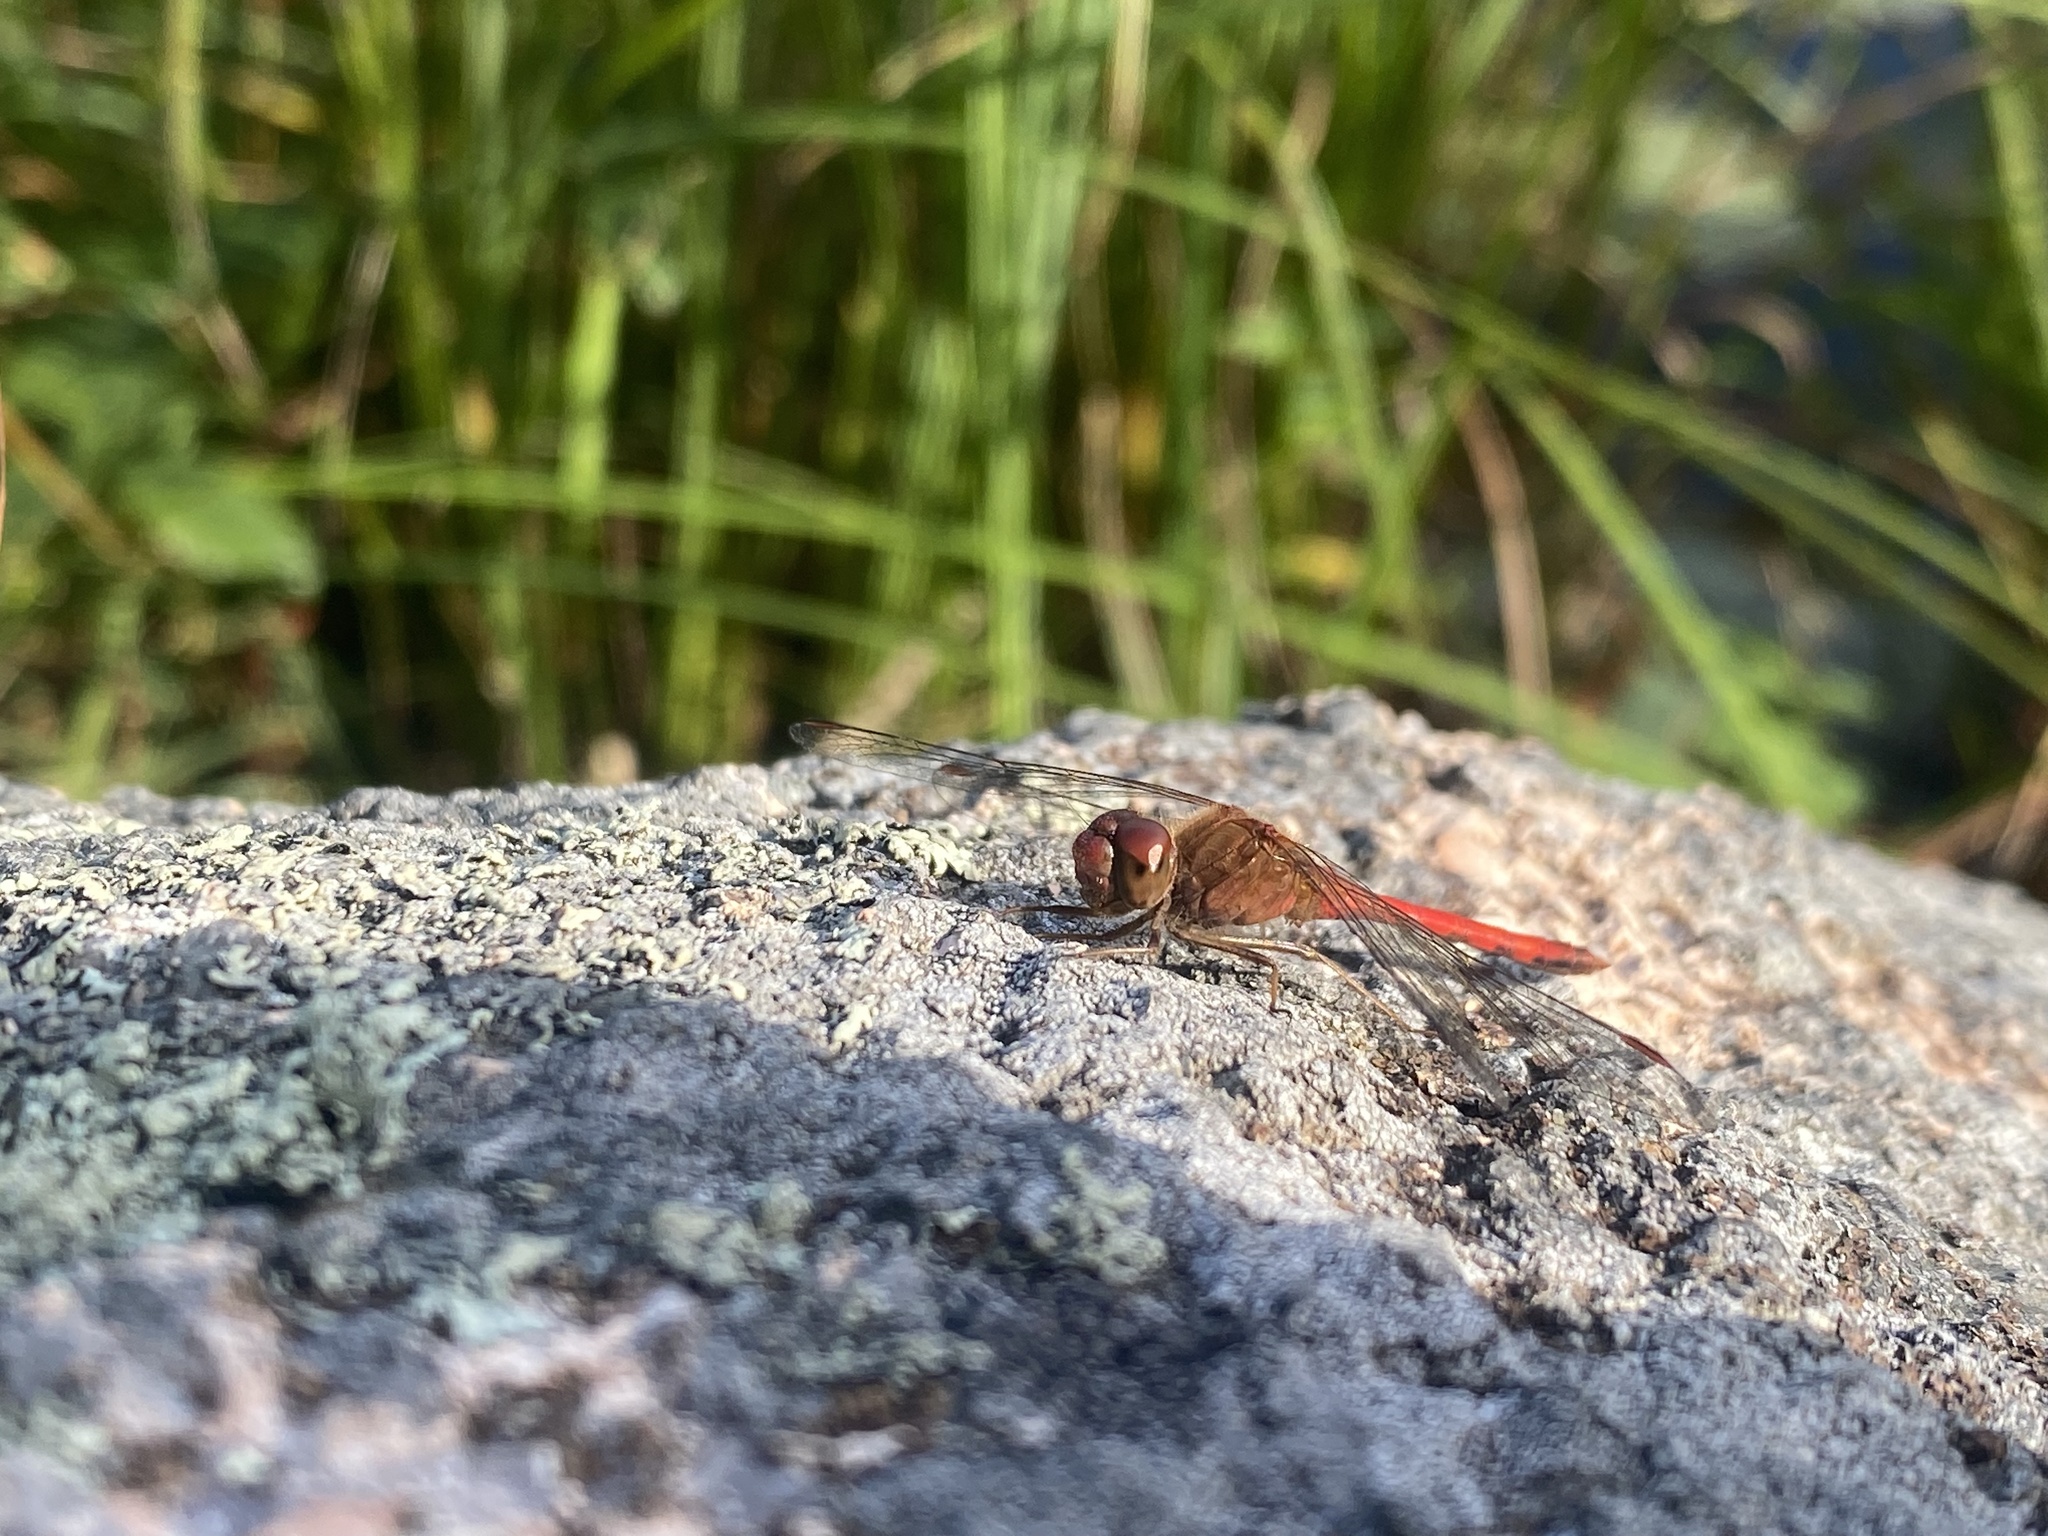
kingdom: Animalia
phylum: Arthropoda
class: Insecta
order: Odonata
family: Libellulidae
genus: Sympetrum
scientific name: Sympetrum vicinum
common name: Autumn meadowhawk
